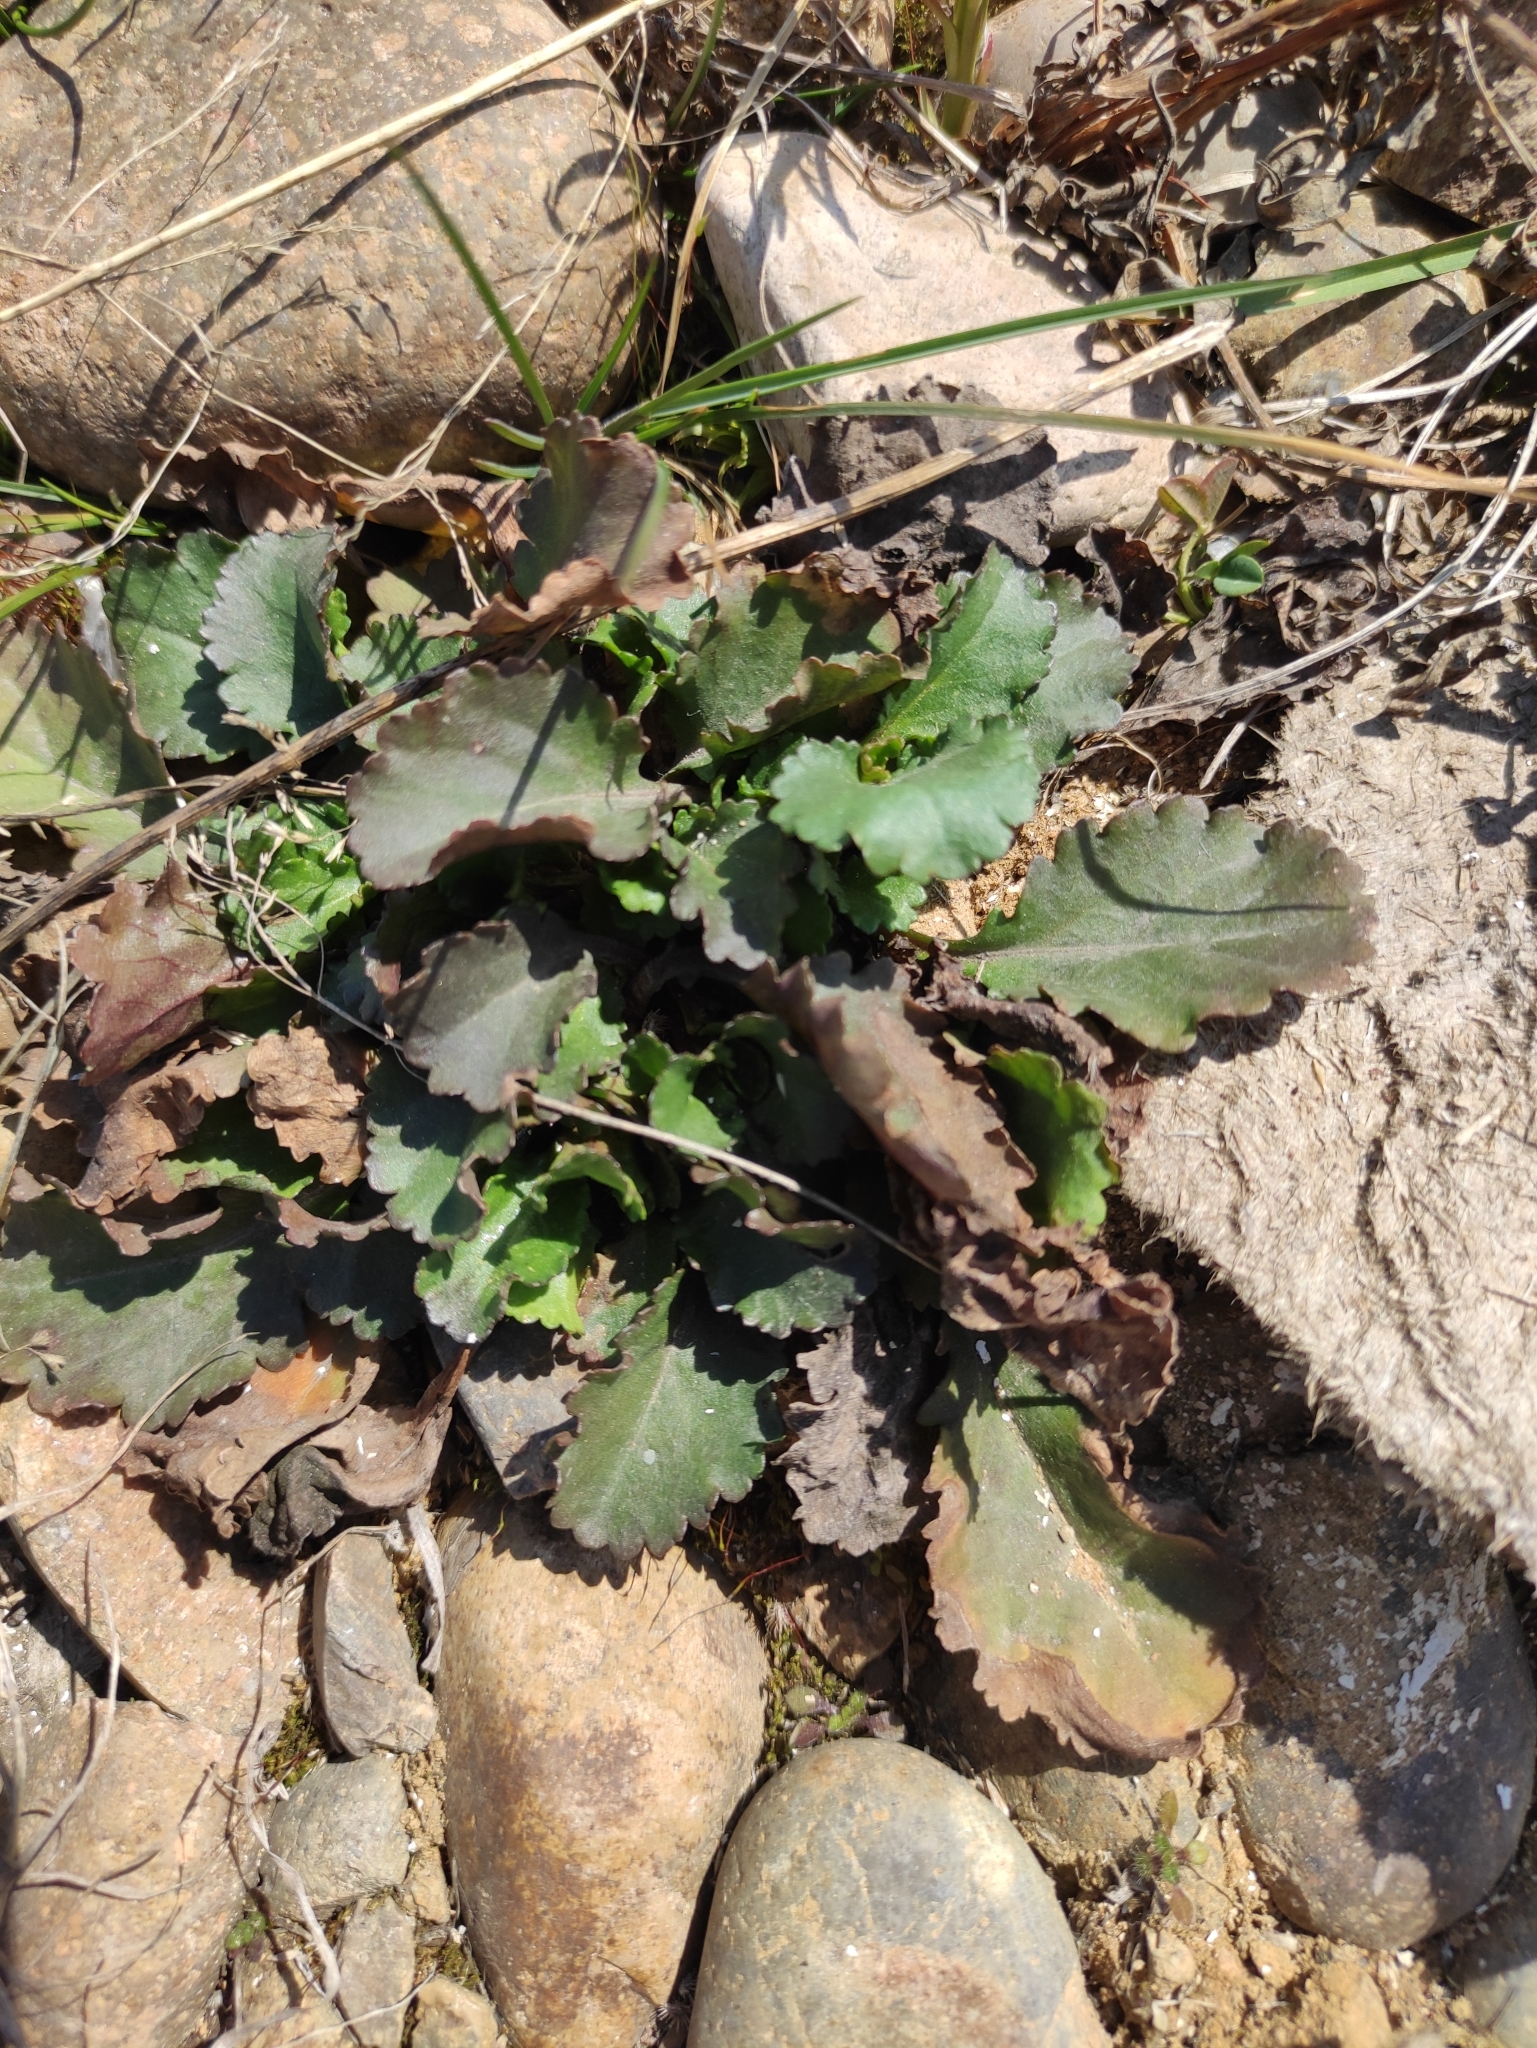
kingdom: Plantae
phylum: Tracheophyta
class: Magnoliopsida
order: Asterales
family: Asteraceae
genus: Leucanthemum
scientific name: Leucanthemum ircutianum
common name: Daisy
